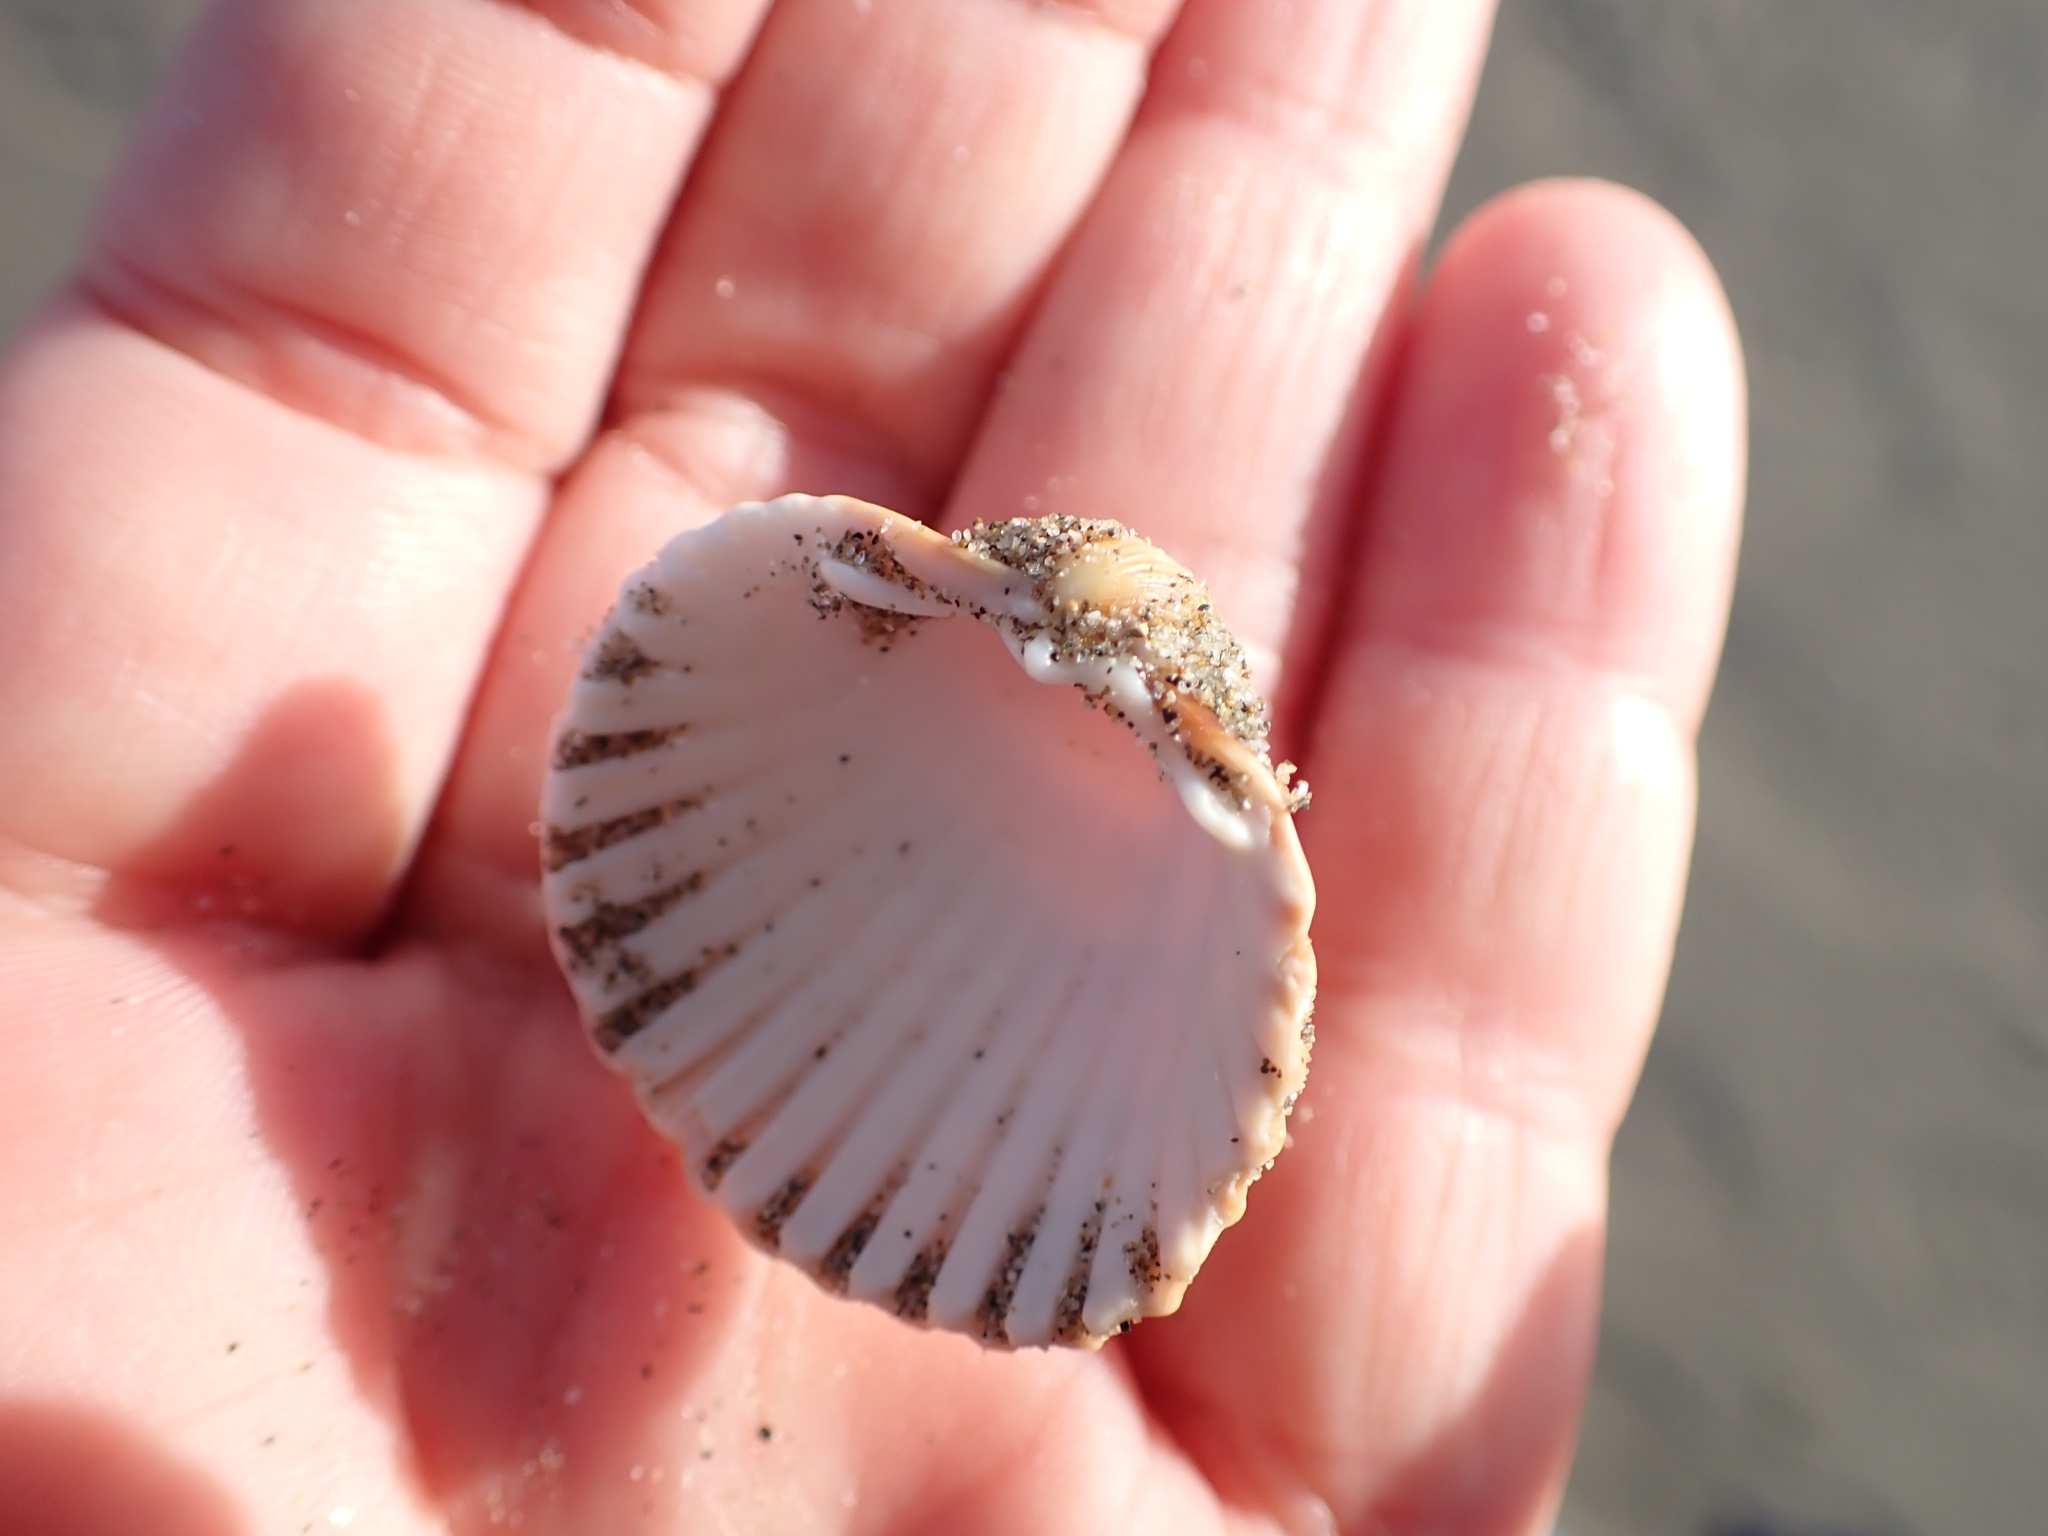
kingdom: Animalia
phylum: Mollusca
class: Bivalvia
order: Cardiida
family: Cardiidae
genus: Acanthocardia
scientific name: Acanthocardia tuberculata
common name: Rough cockle
